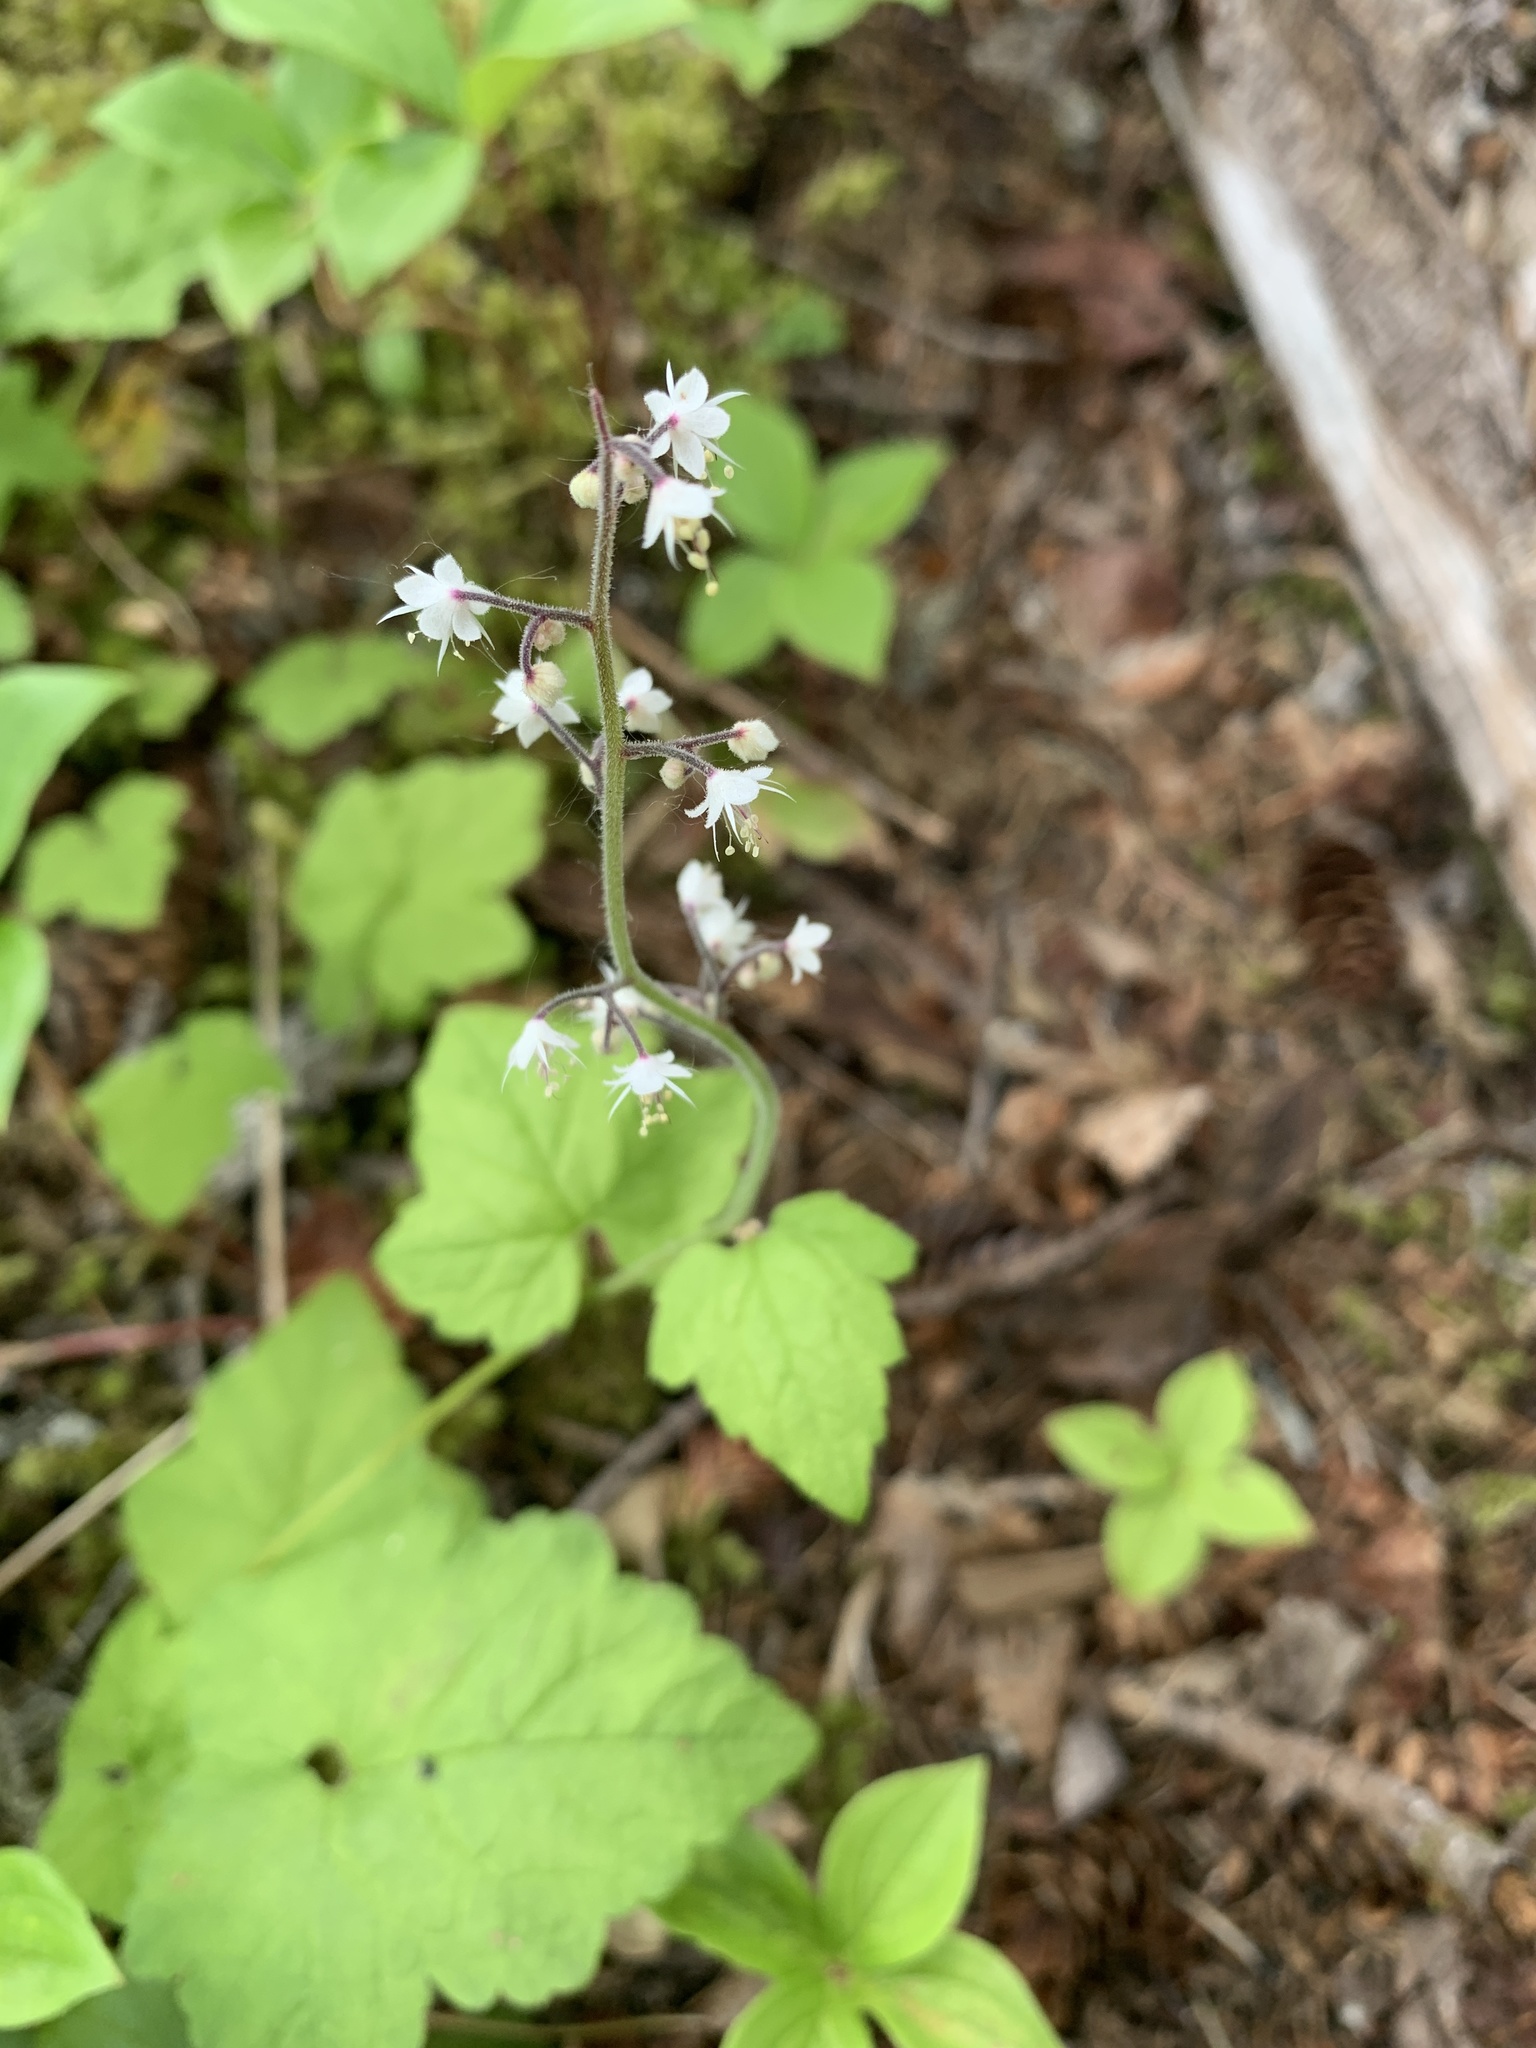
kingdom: Plantae
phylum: Tracheophyta
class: Magnoliopsida
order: Saxifragales
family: Saxifragaceae
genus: Tiarella
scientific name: Tiarella trifoliata
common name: Sugar-scoop
